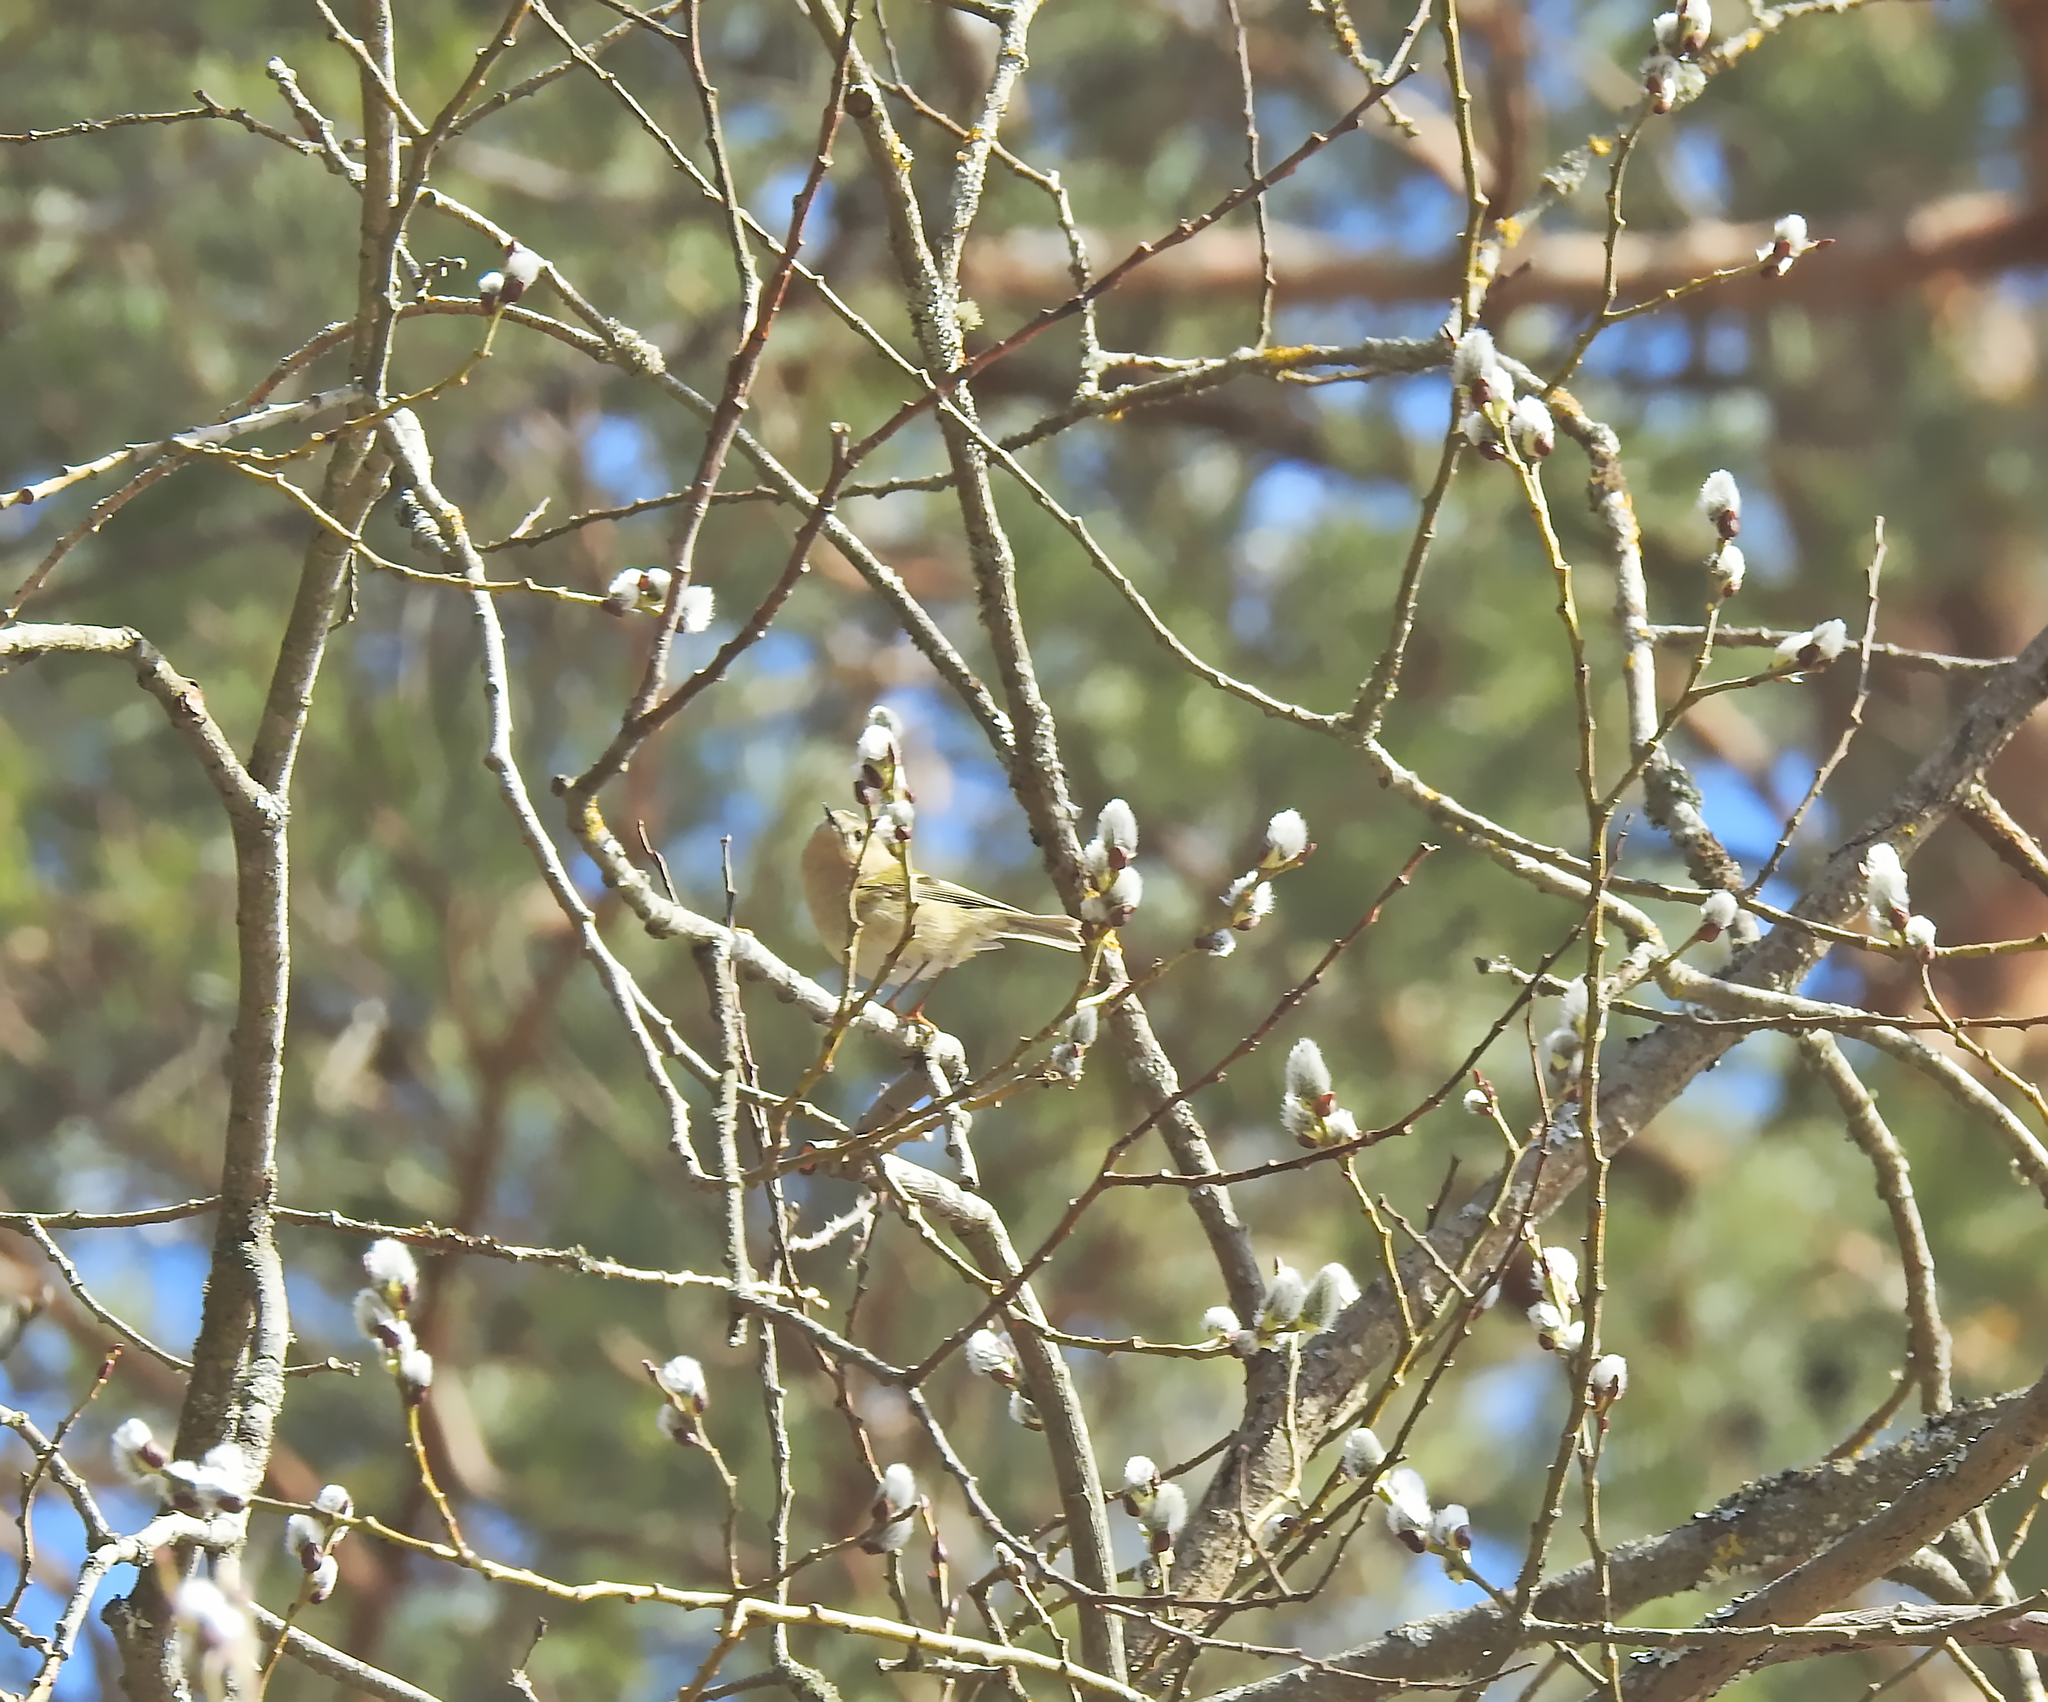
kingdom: Animalia
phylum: Chordata
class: Aves
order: Passeriformes
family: Regulidae
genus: Regulus
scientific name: Regulus regulus
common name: Goldcrest
